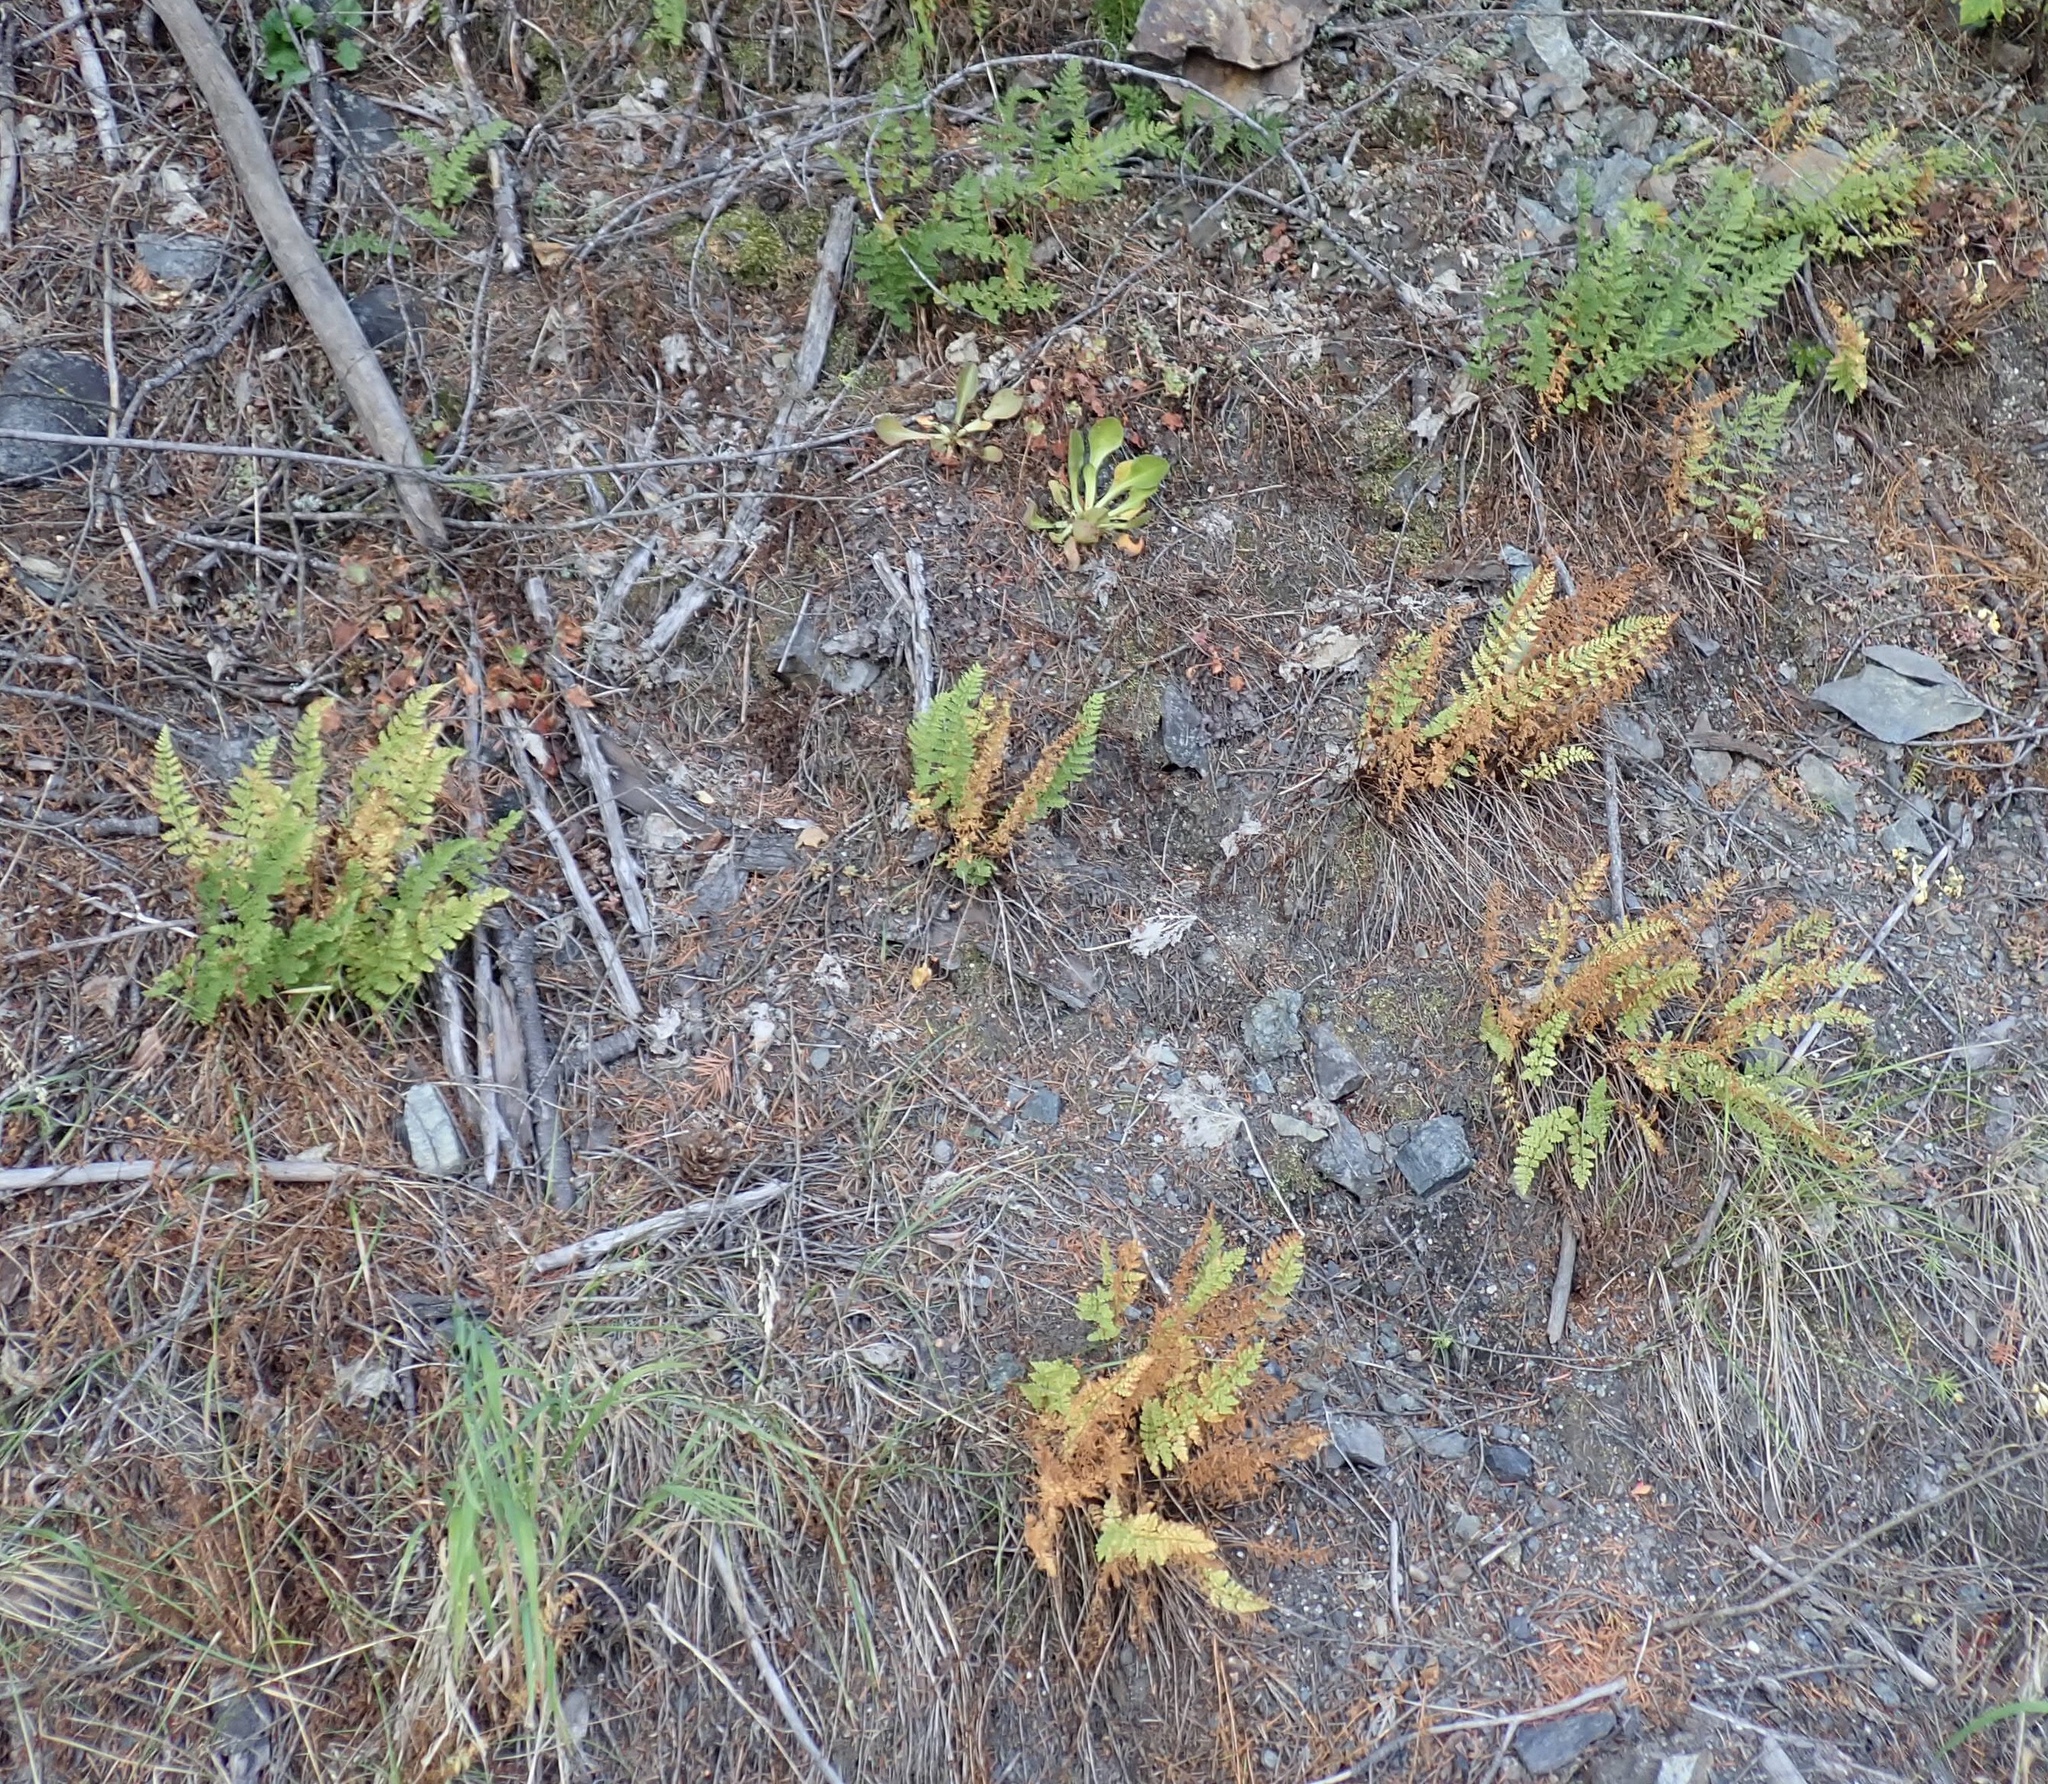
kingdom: Plantae
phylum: Tracheophyta
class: Polypodiopsida
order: Polypodiales
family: Woodsiaceae
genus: Physematium
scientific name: Physematium scopulinum
